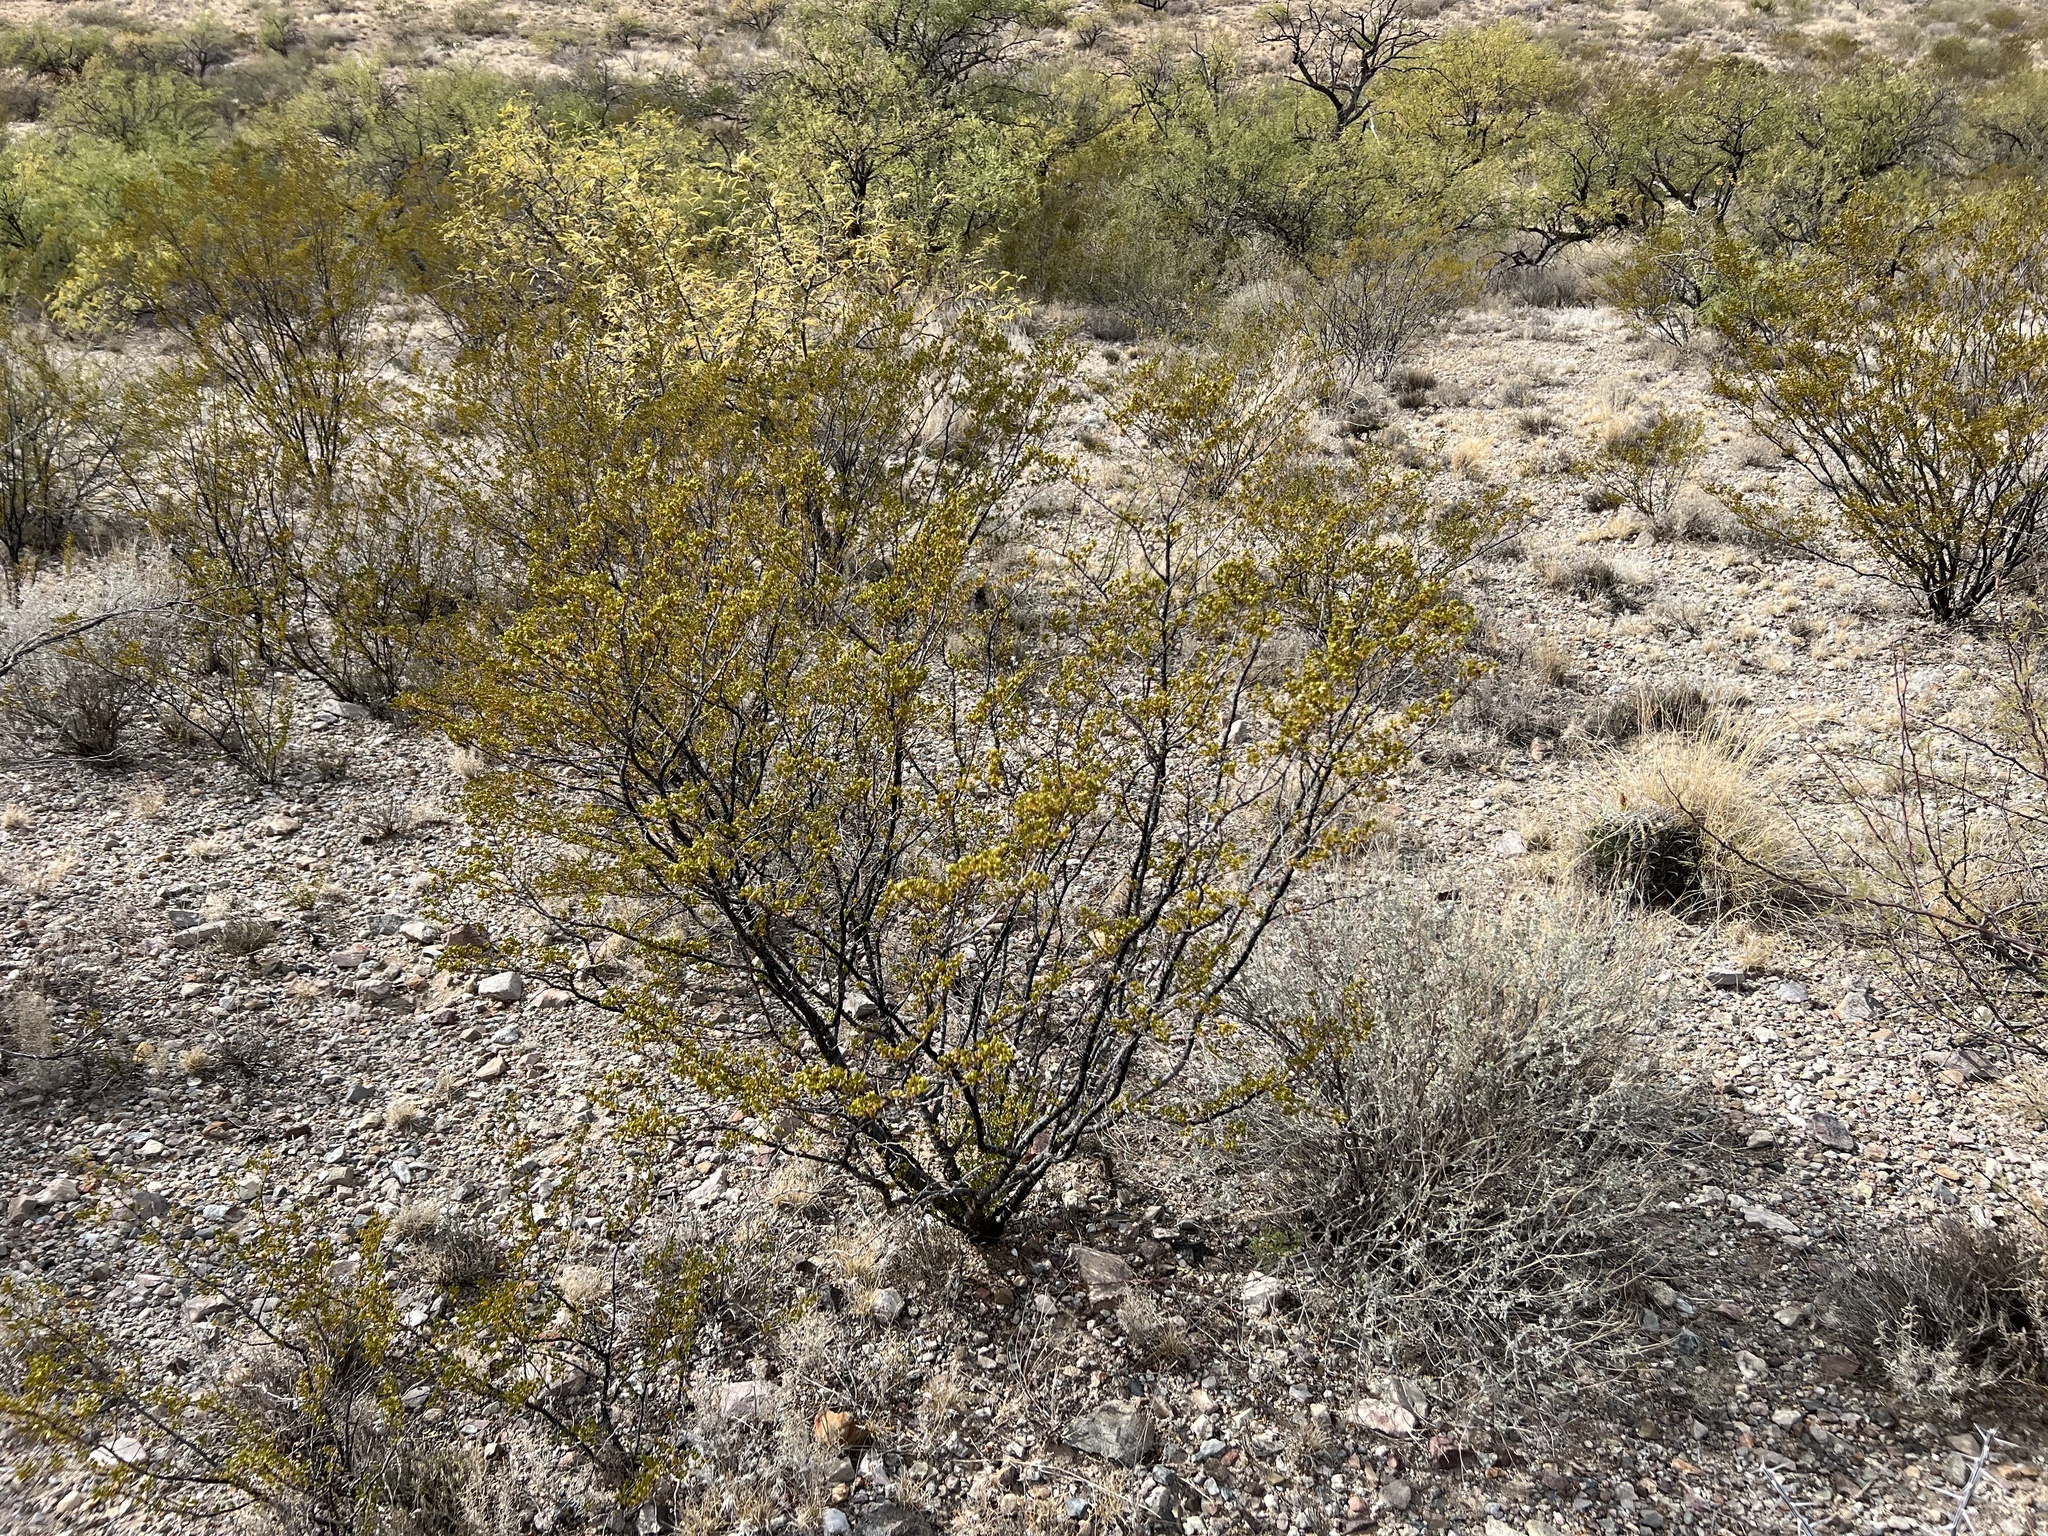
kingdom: Plantae
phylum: Tracheophyta
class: Magnoliopsida
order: Zygophyllales
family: Zygophyllaceae
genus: Larrea
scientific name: Larrea tridentata
